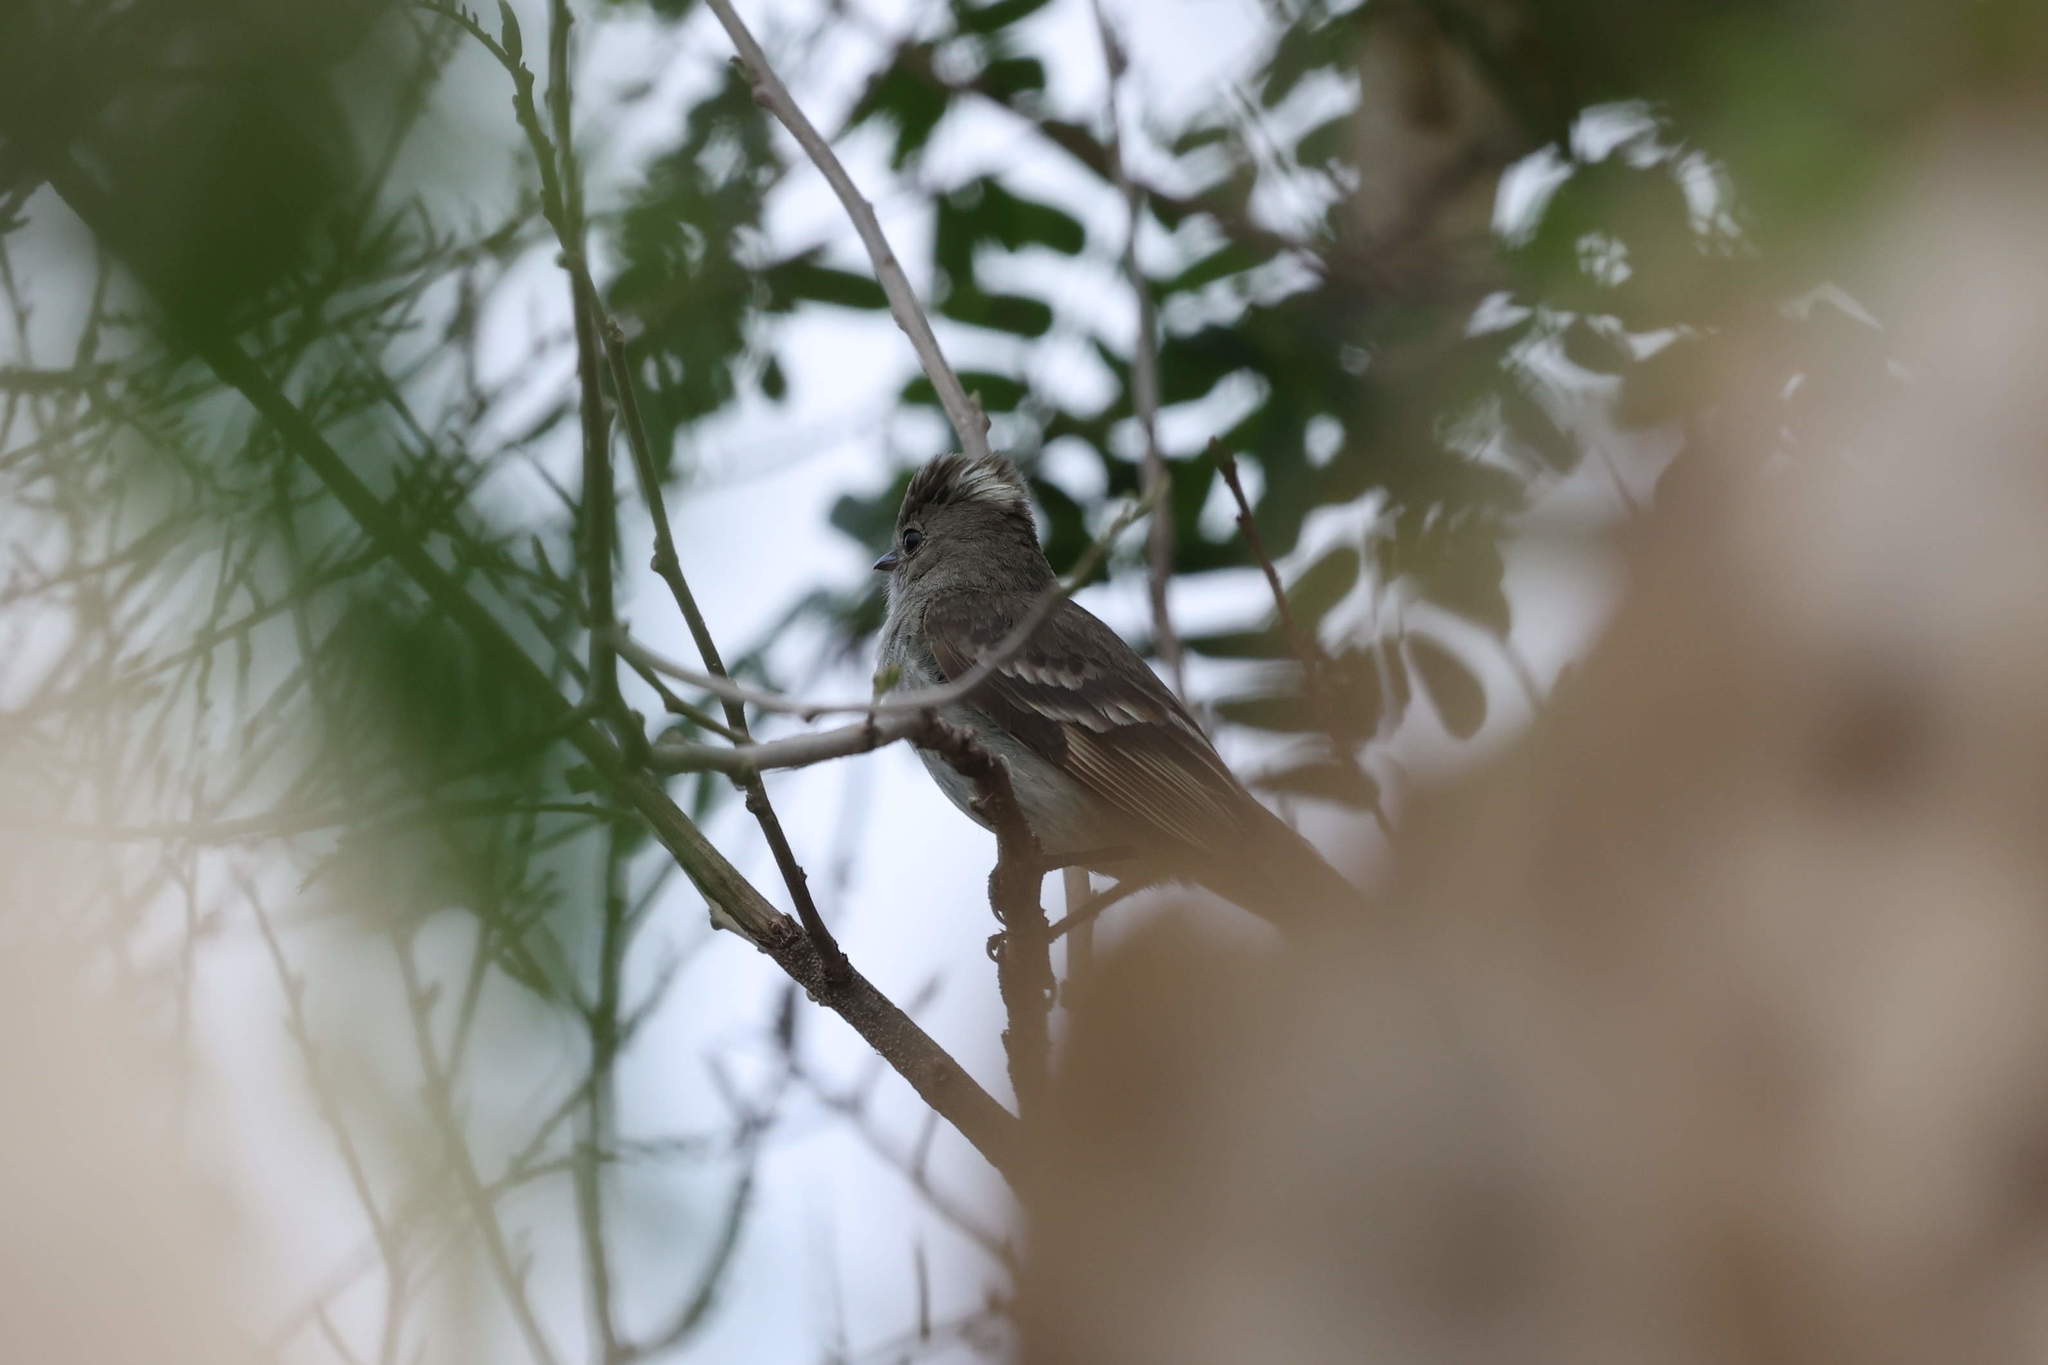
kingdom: Animalia
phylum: Chordata
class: Aves
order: Passeriformes
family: Tyrannidae
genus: Elaenia
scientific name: Elaenia martinica
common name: Caribbean elaenia
